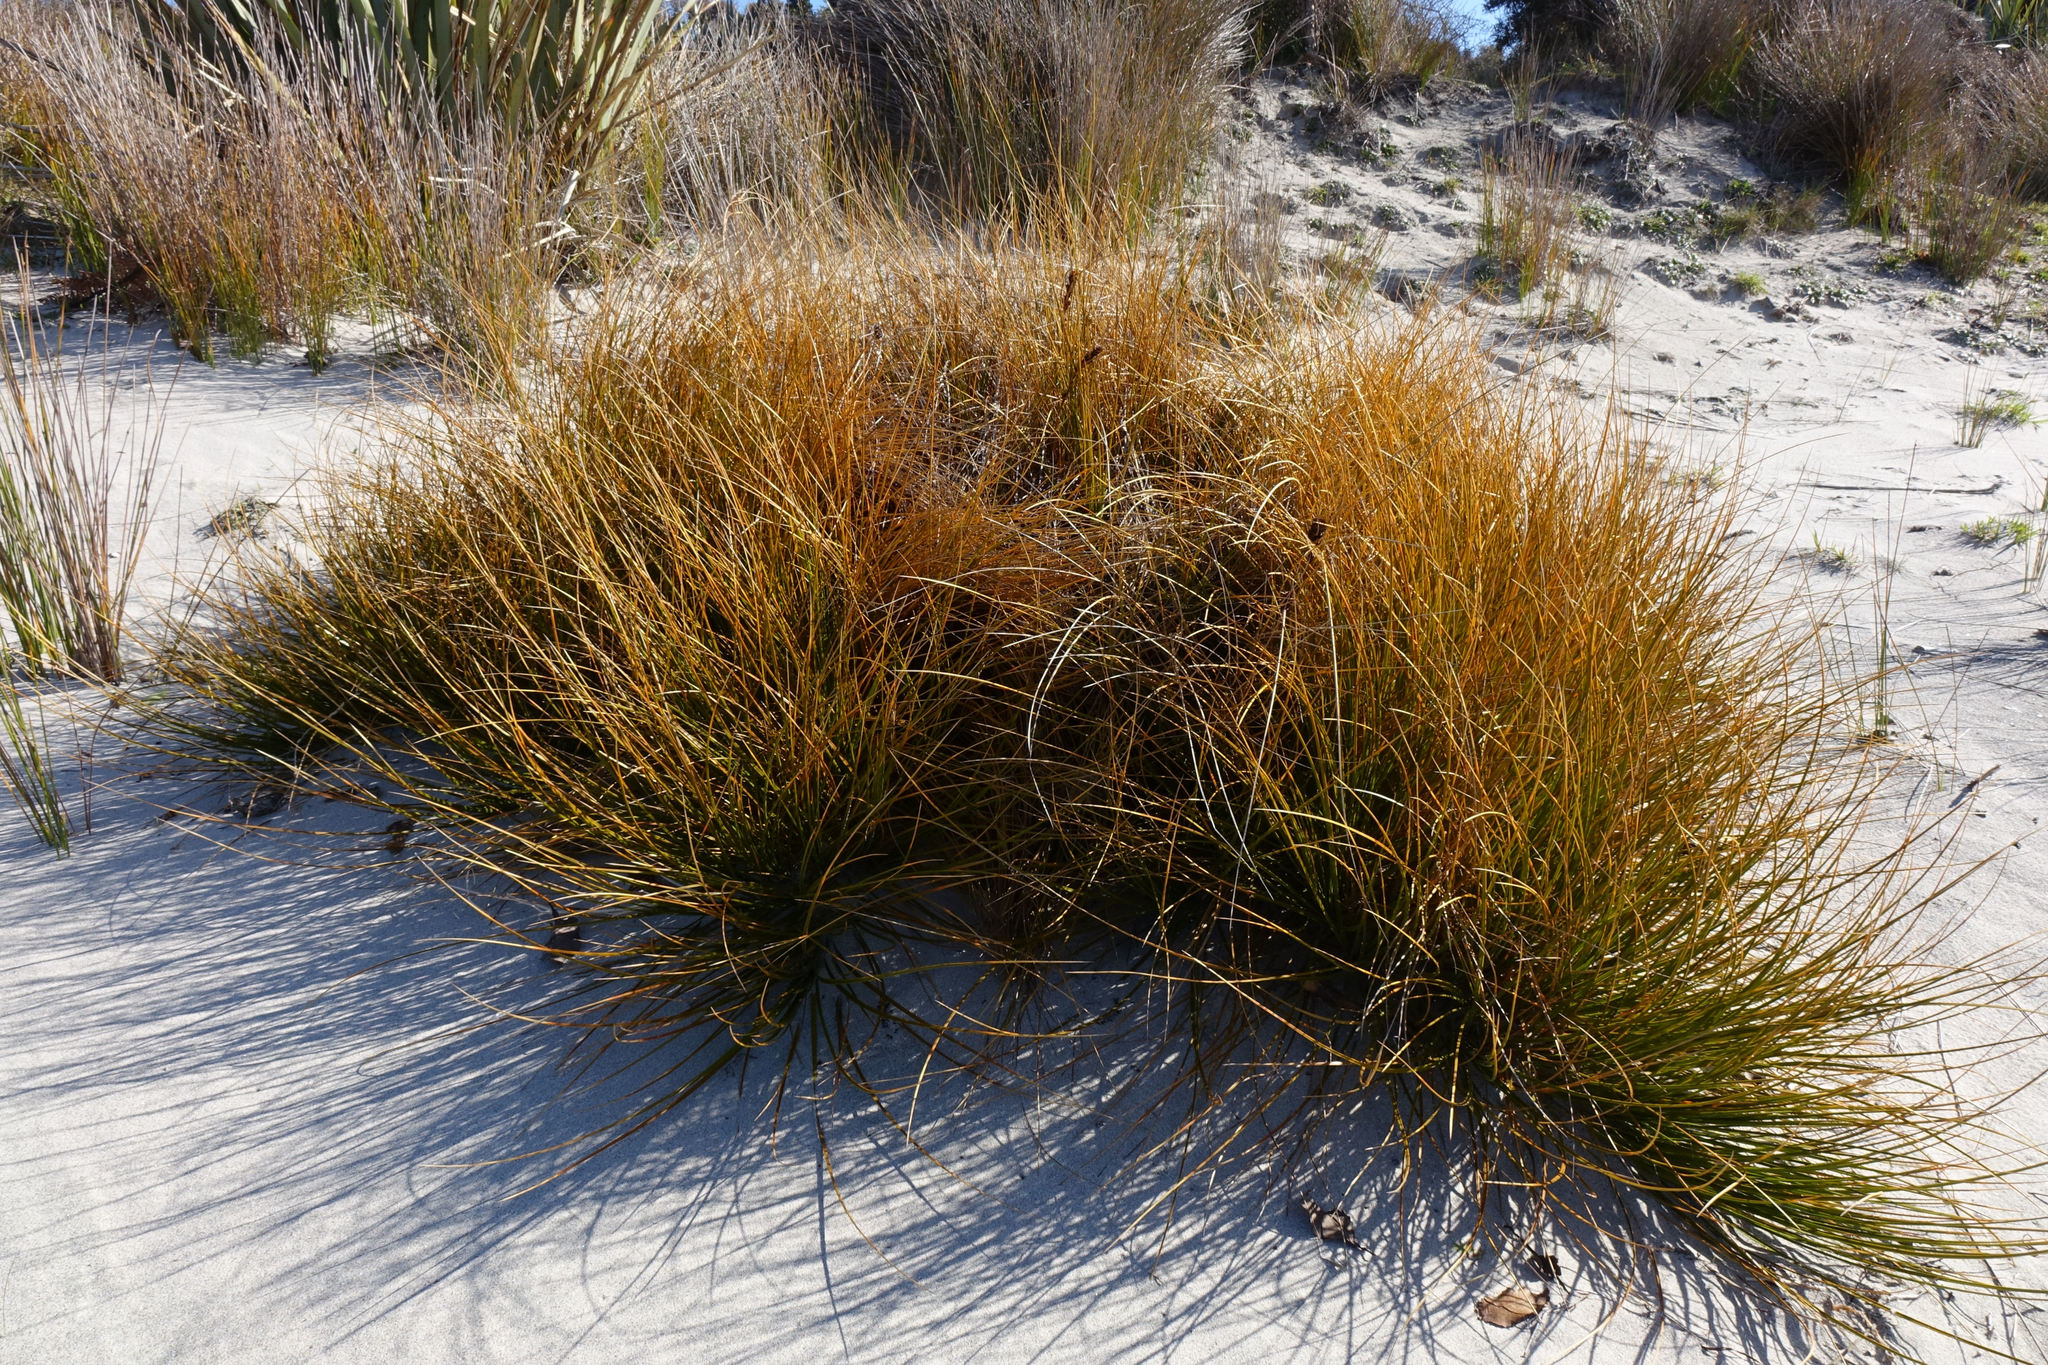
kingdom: Plantae
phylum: Tracheophyta
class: Liliopsida
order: Poales
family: Cyperaceae
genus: Ficinia
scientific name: Ficinia spiralis
